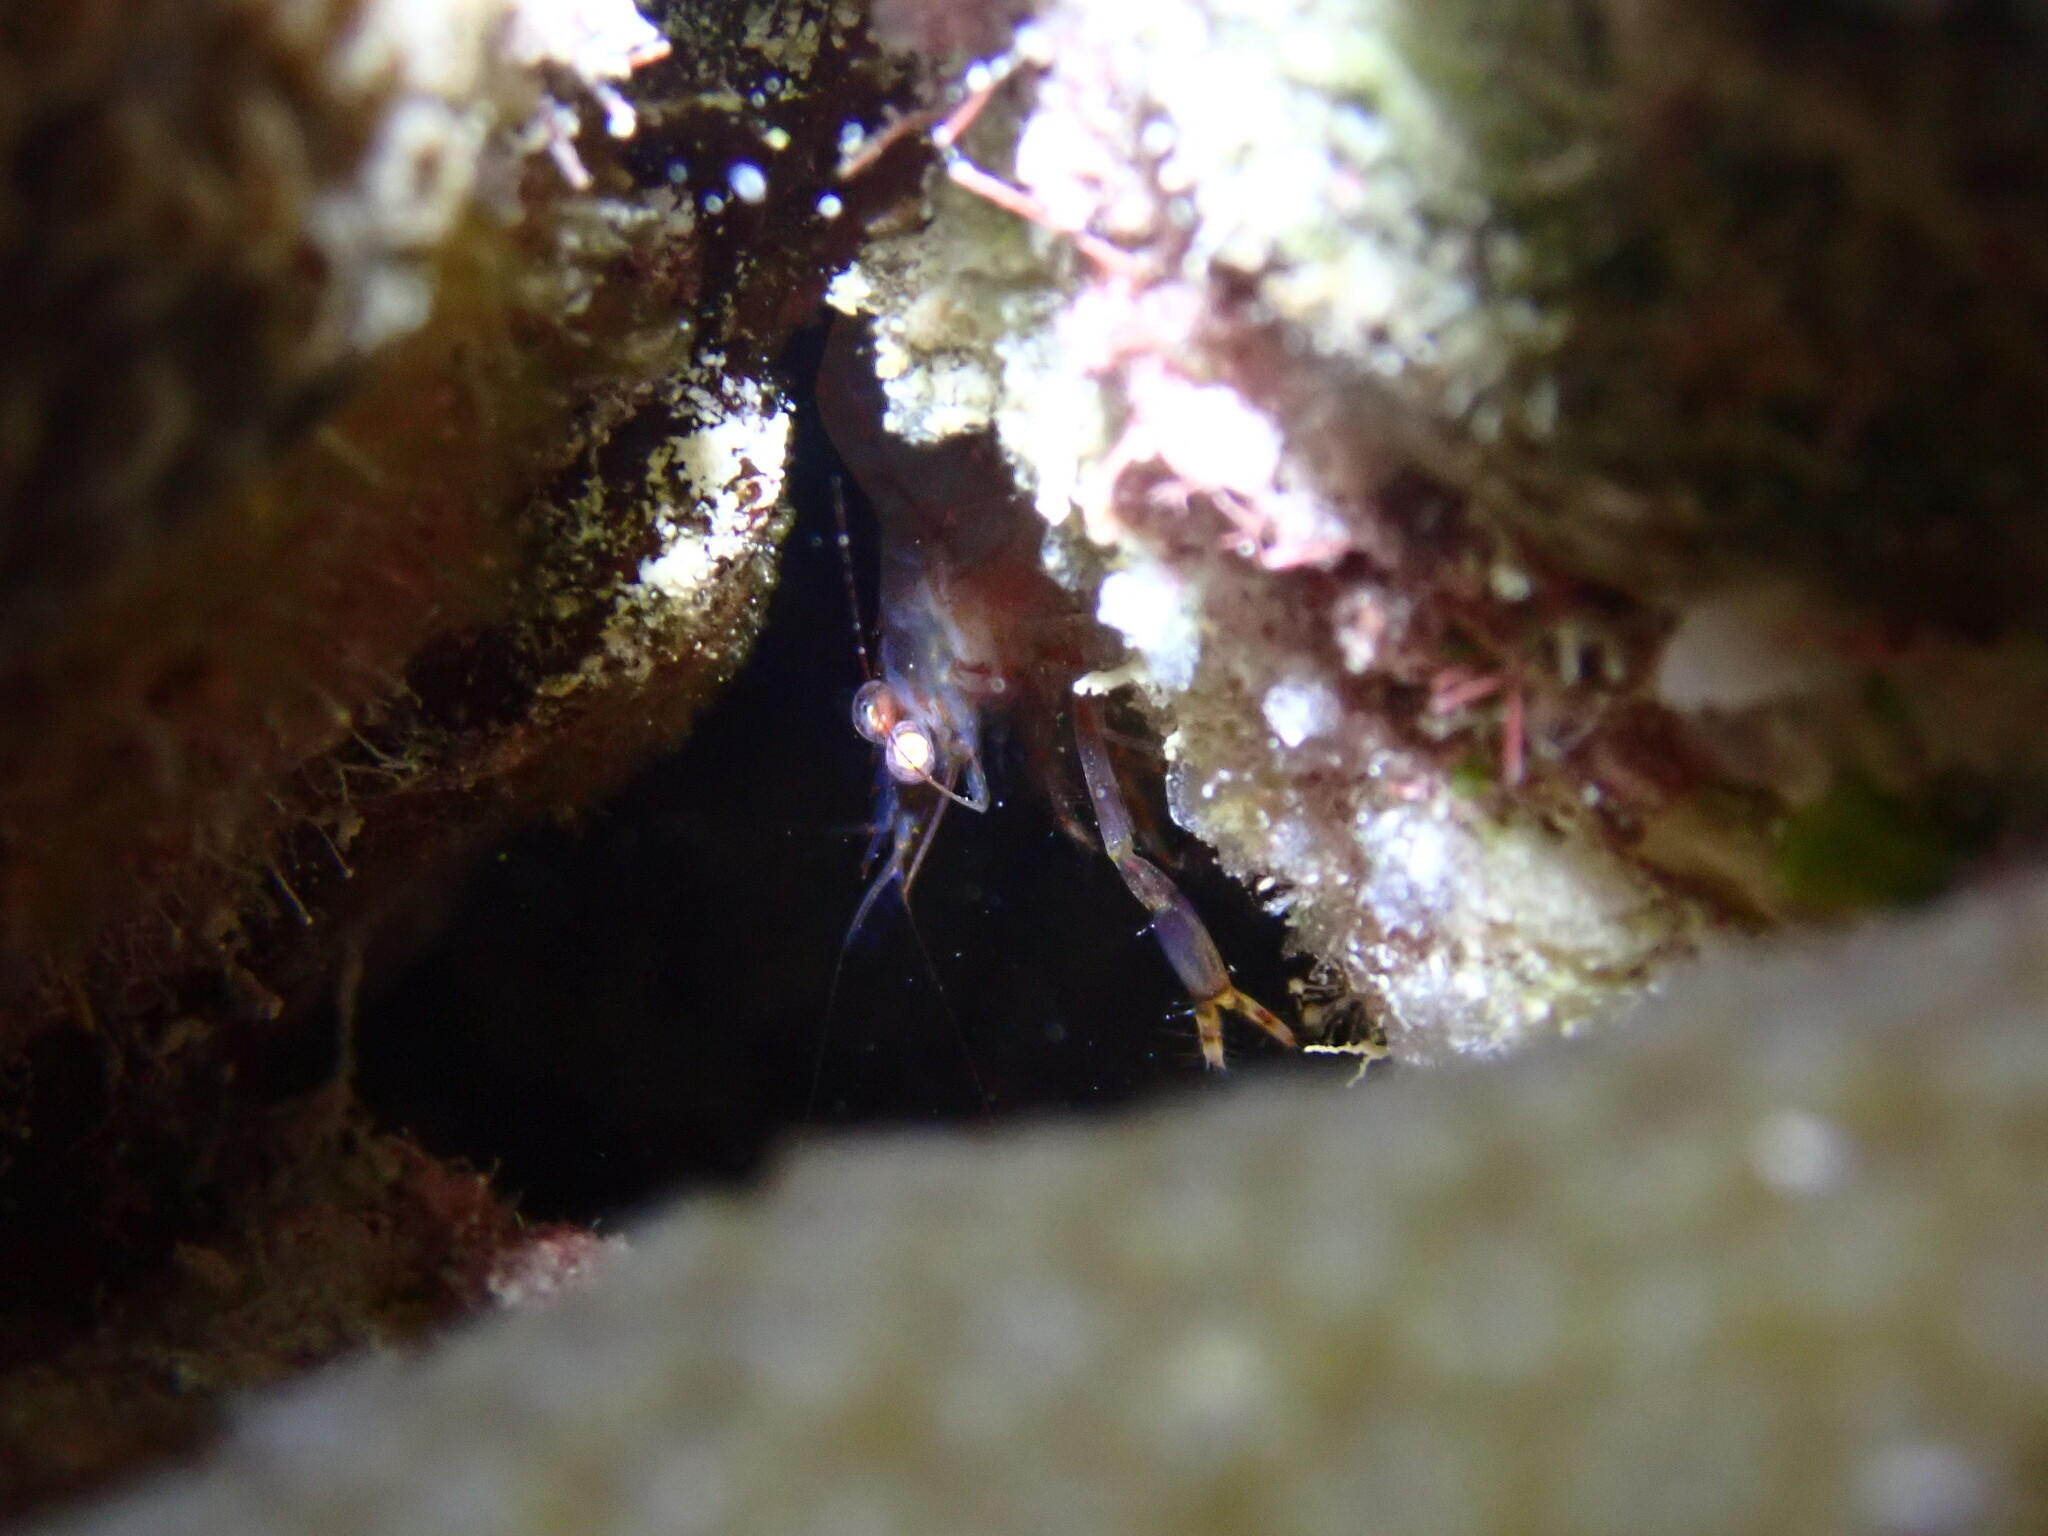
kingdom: Animalia
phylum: Arthropoda
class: Malacostraca
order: Decapoda
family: Palaemonidae
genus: Brachycarpus
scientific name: Brachycarpus biunguiculatus
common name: Two-clawed shrimp
